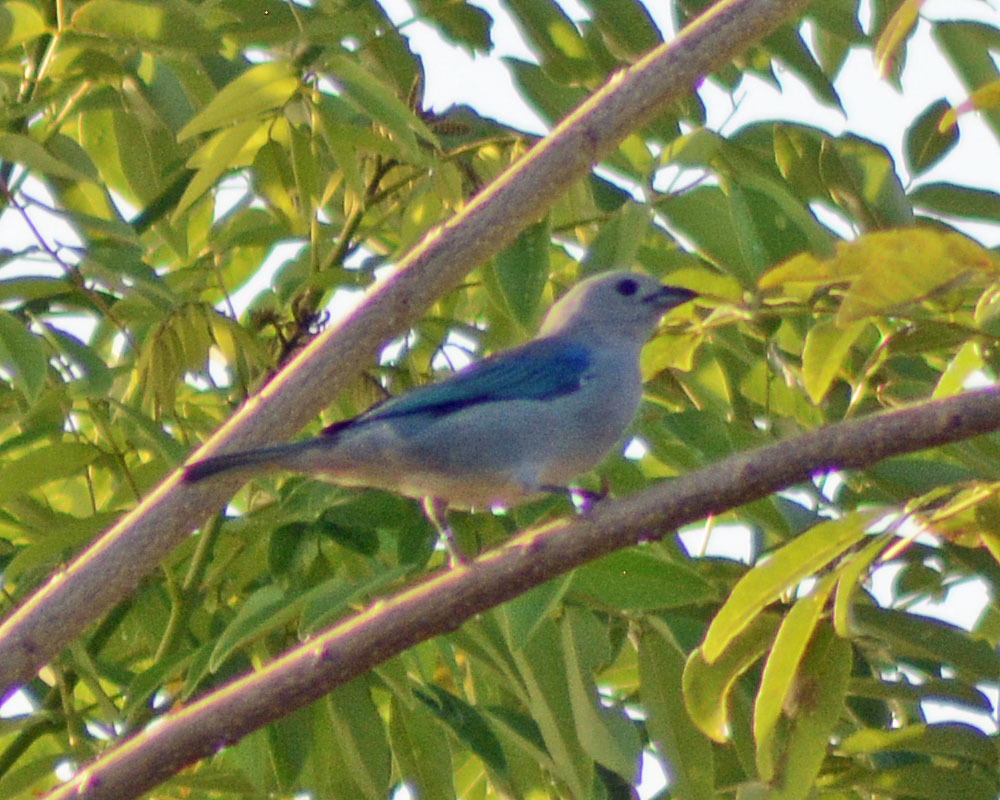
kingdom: Animalia
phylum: Chordata
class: Aves
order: Passeriformes
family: Thraupidae
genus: Thraupis
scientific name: Thraupis episcopus
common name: Blue-grey tanager
